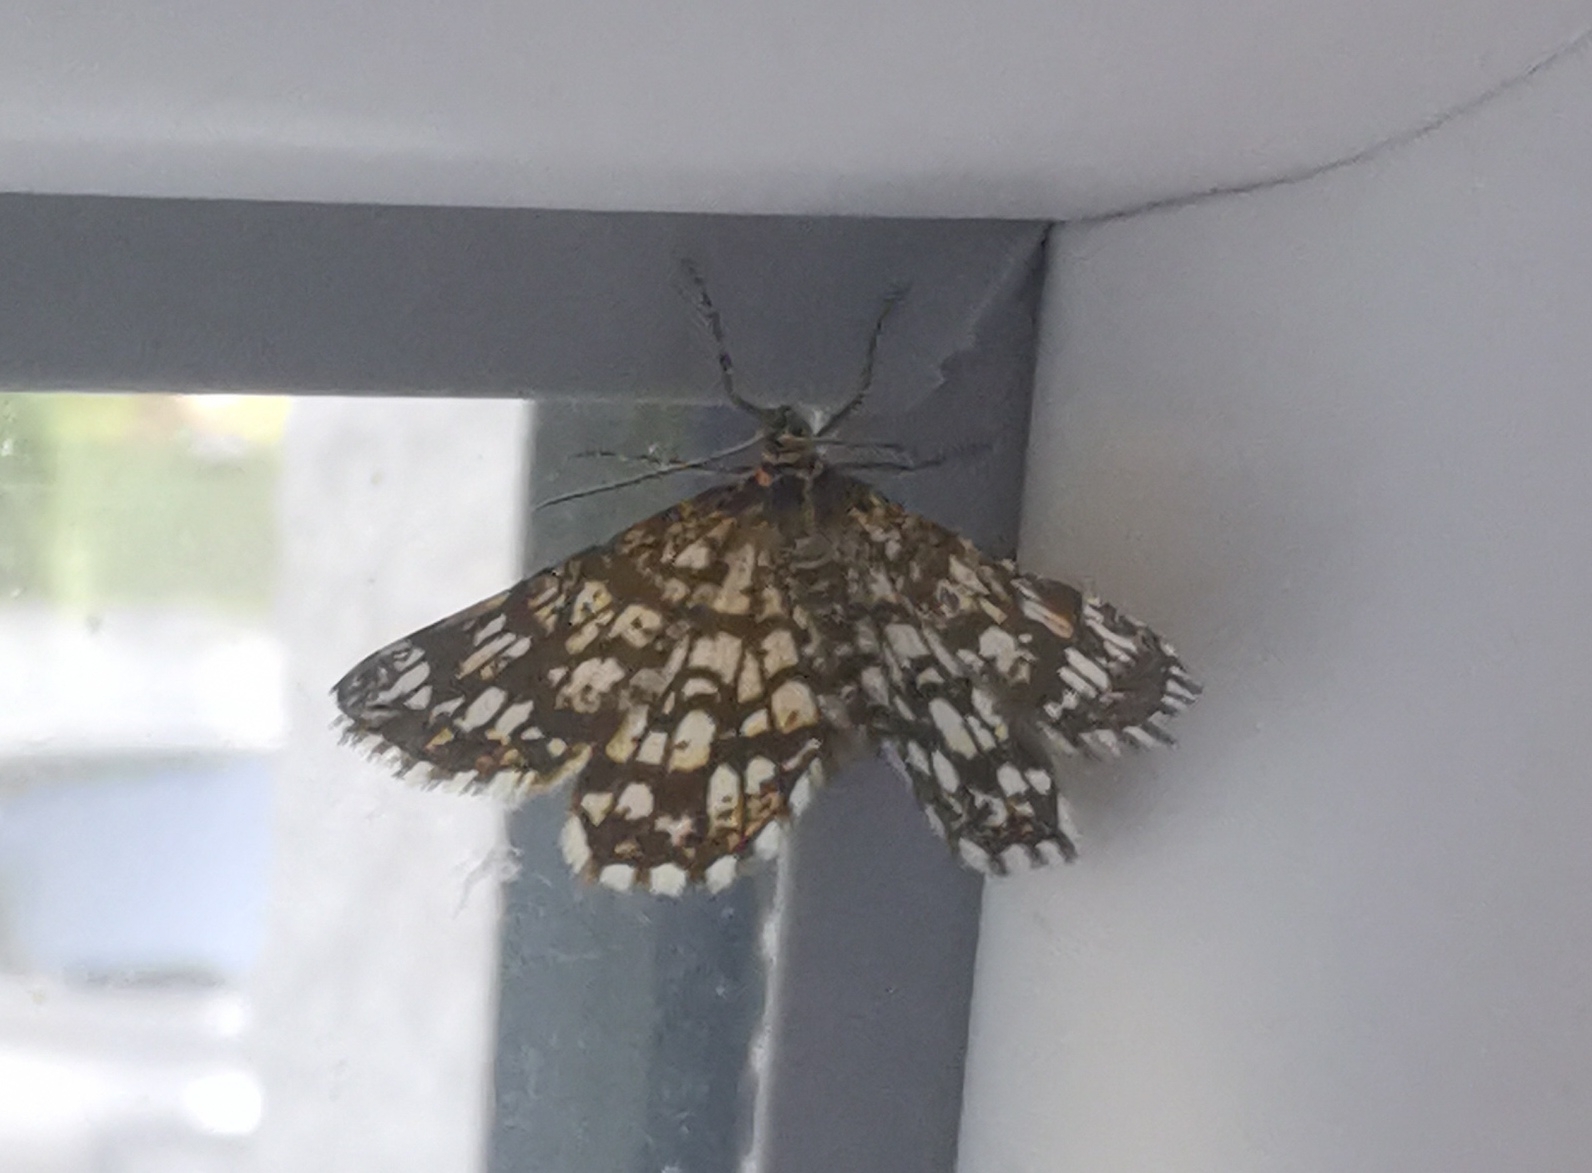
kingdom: Animalia
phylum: Arthropoda
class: Insecta
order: Lepidoptera
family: Geometridae
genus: Chiasmia
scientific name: Chiasmia clathrata
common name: Latticed heath
